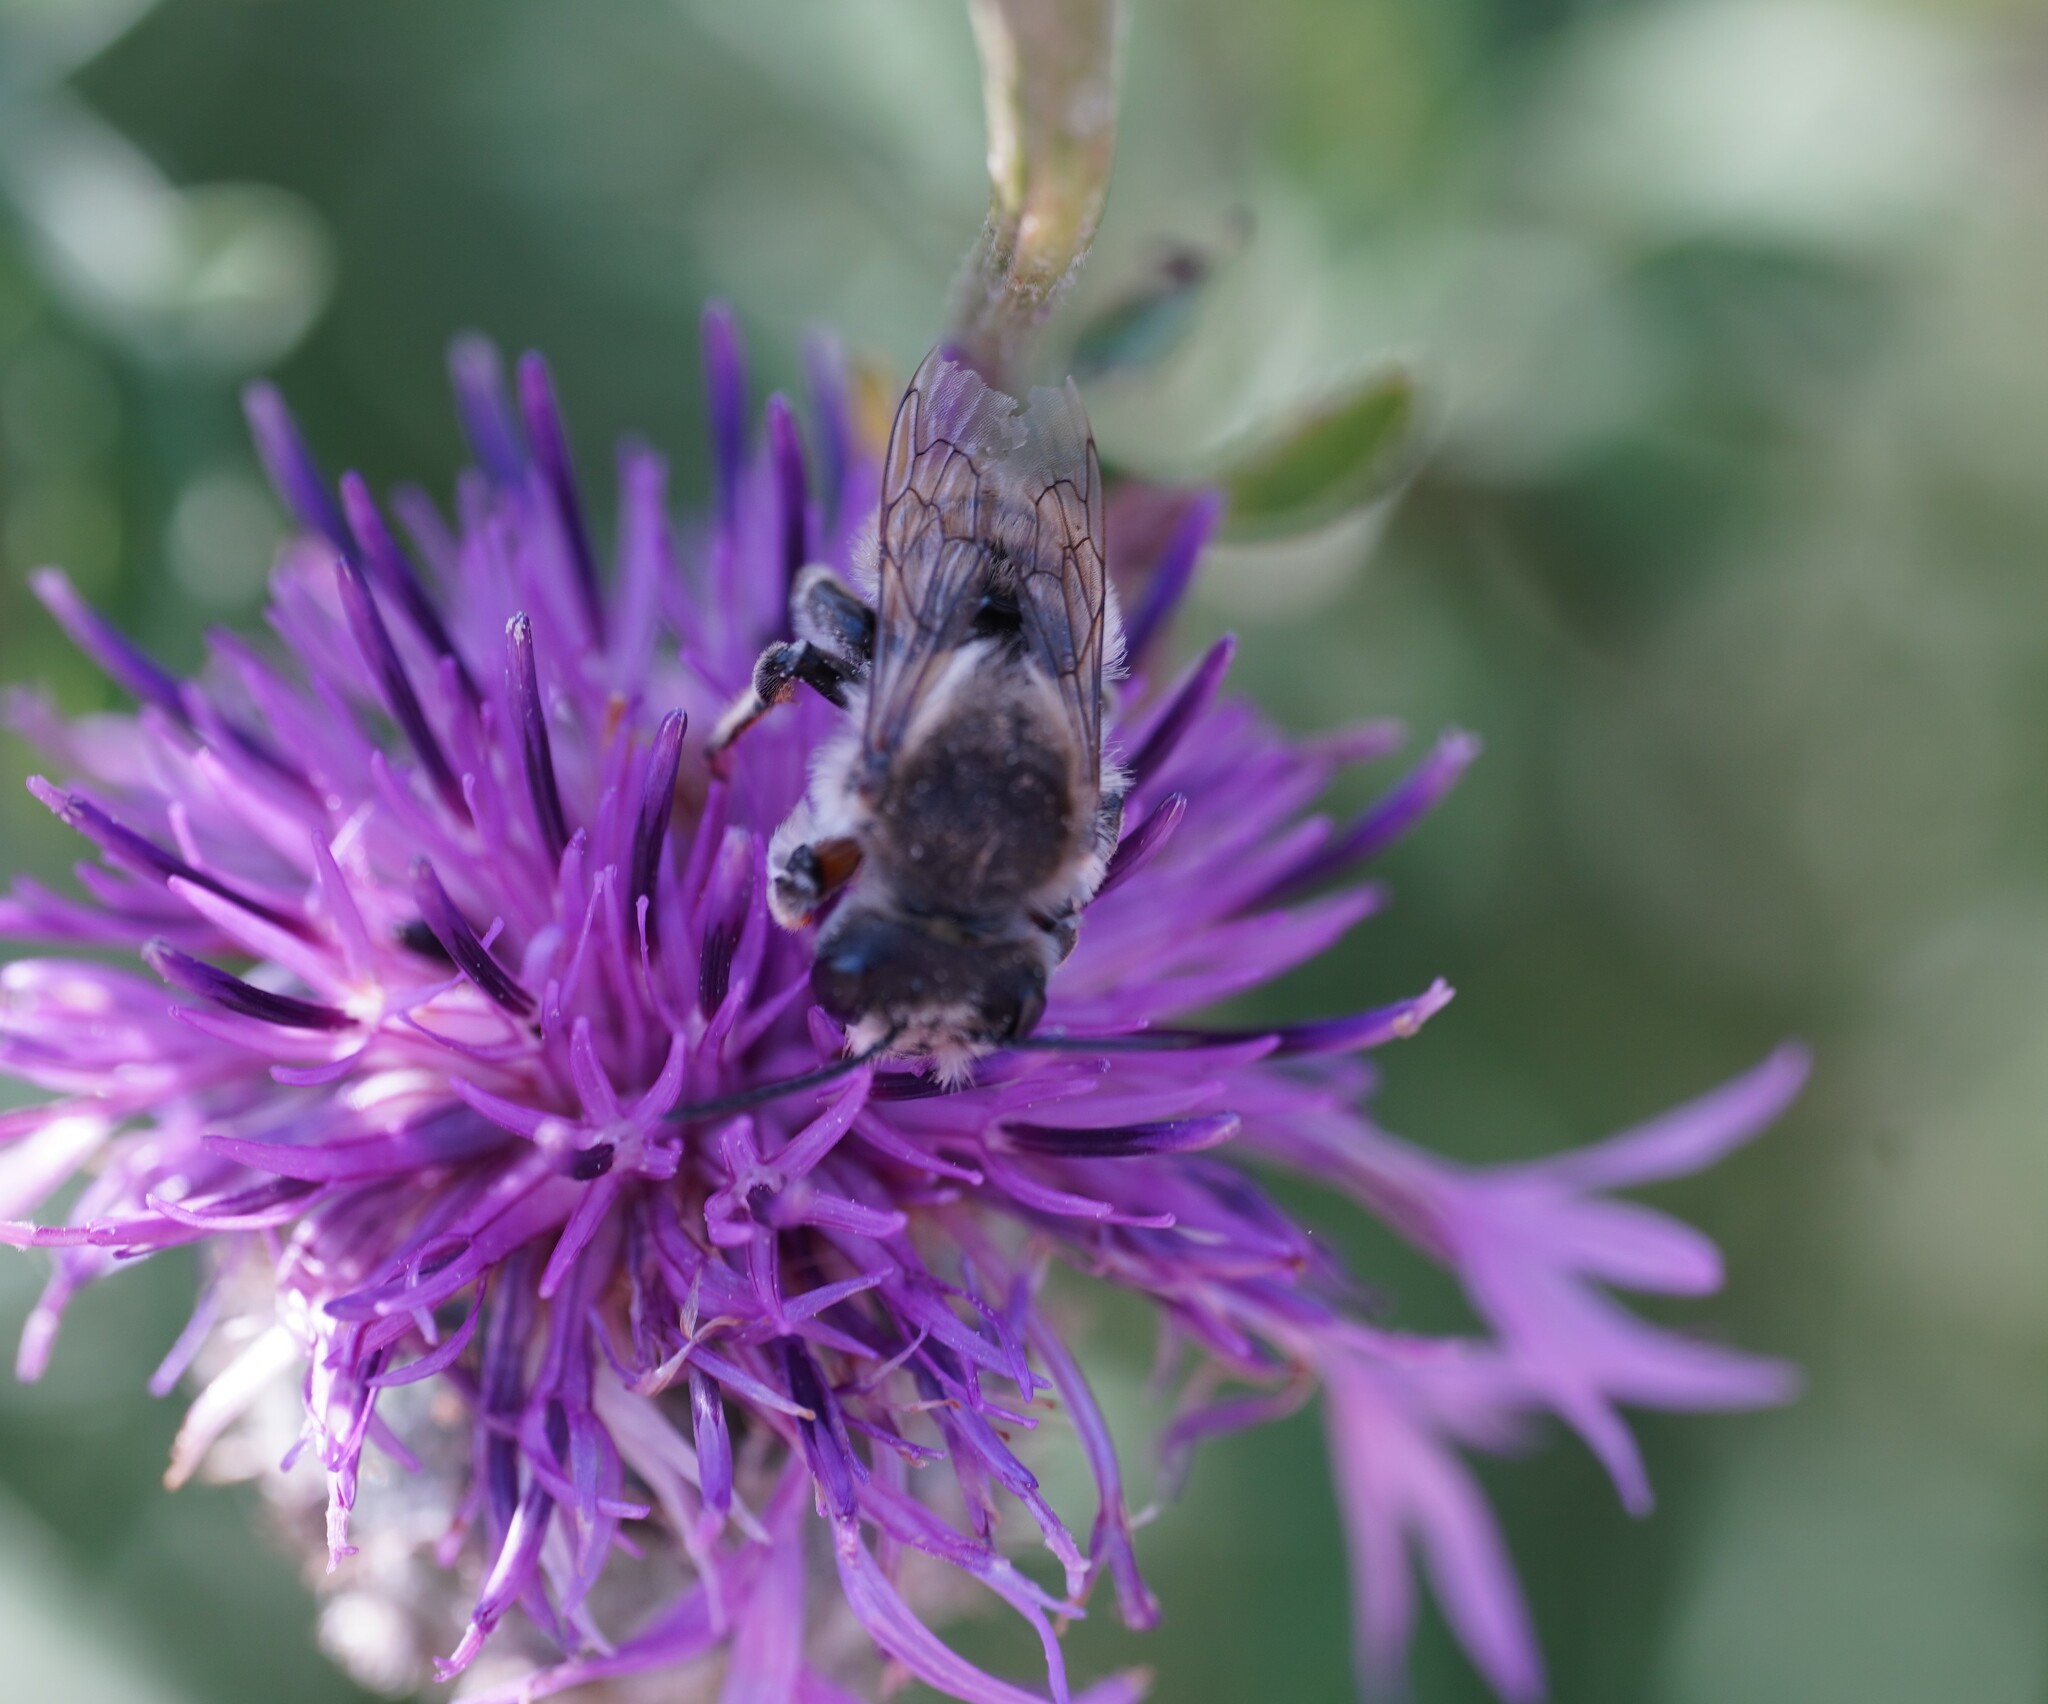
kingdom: Animalia
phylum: Arthropoda
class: Insecta
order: Hymenoptera
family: Megachilidae
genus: Megachile
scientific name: Megachile lagopoda
